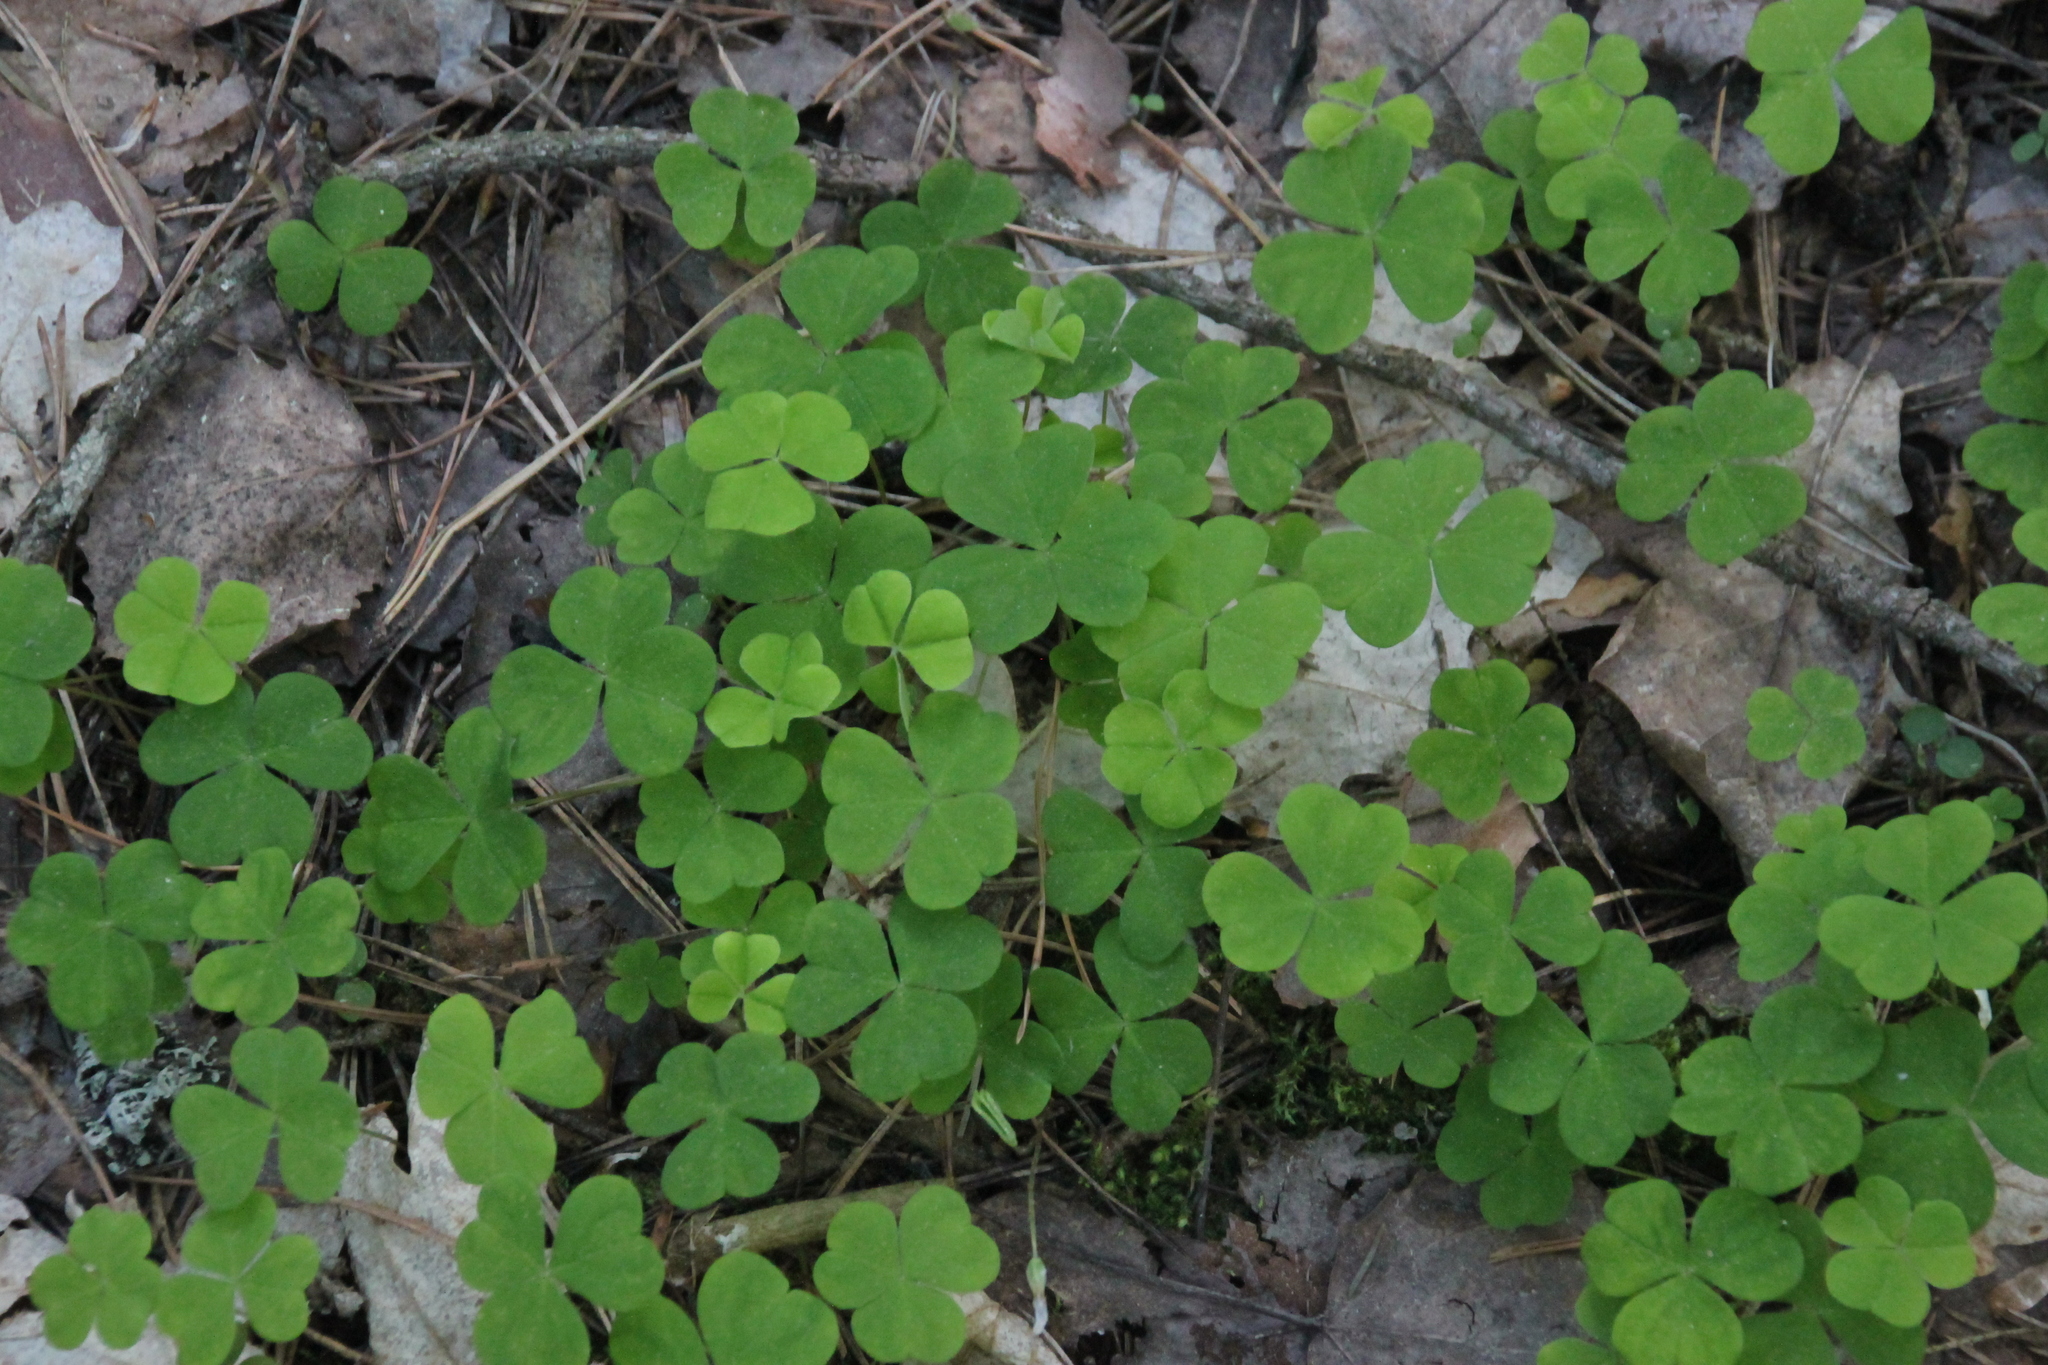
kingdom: Plantae
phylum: Tracheophyta
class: Magnoliopsida
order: Oxalidales
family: Oxalidaceae
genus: Oxalis
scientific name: Oxalis acetosella
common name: Wood-sorrel
